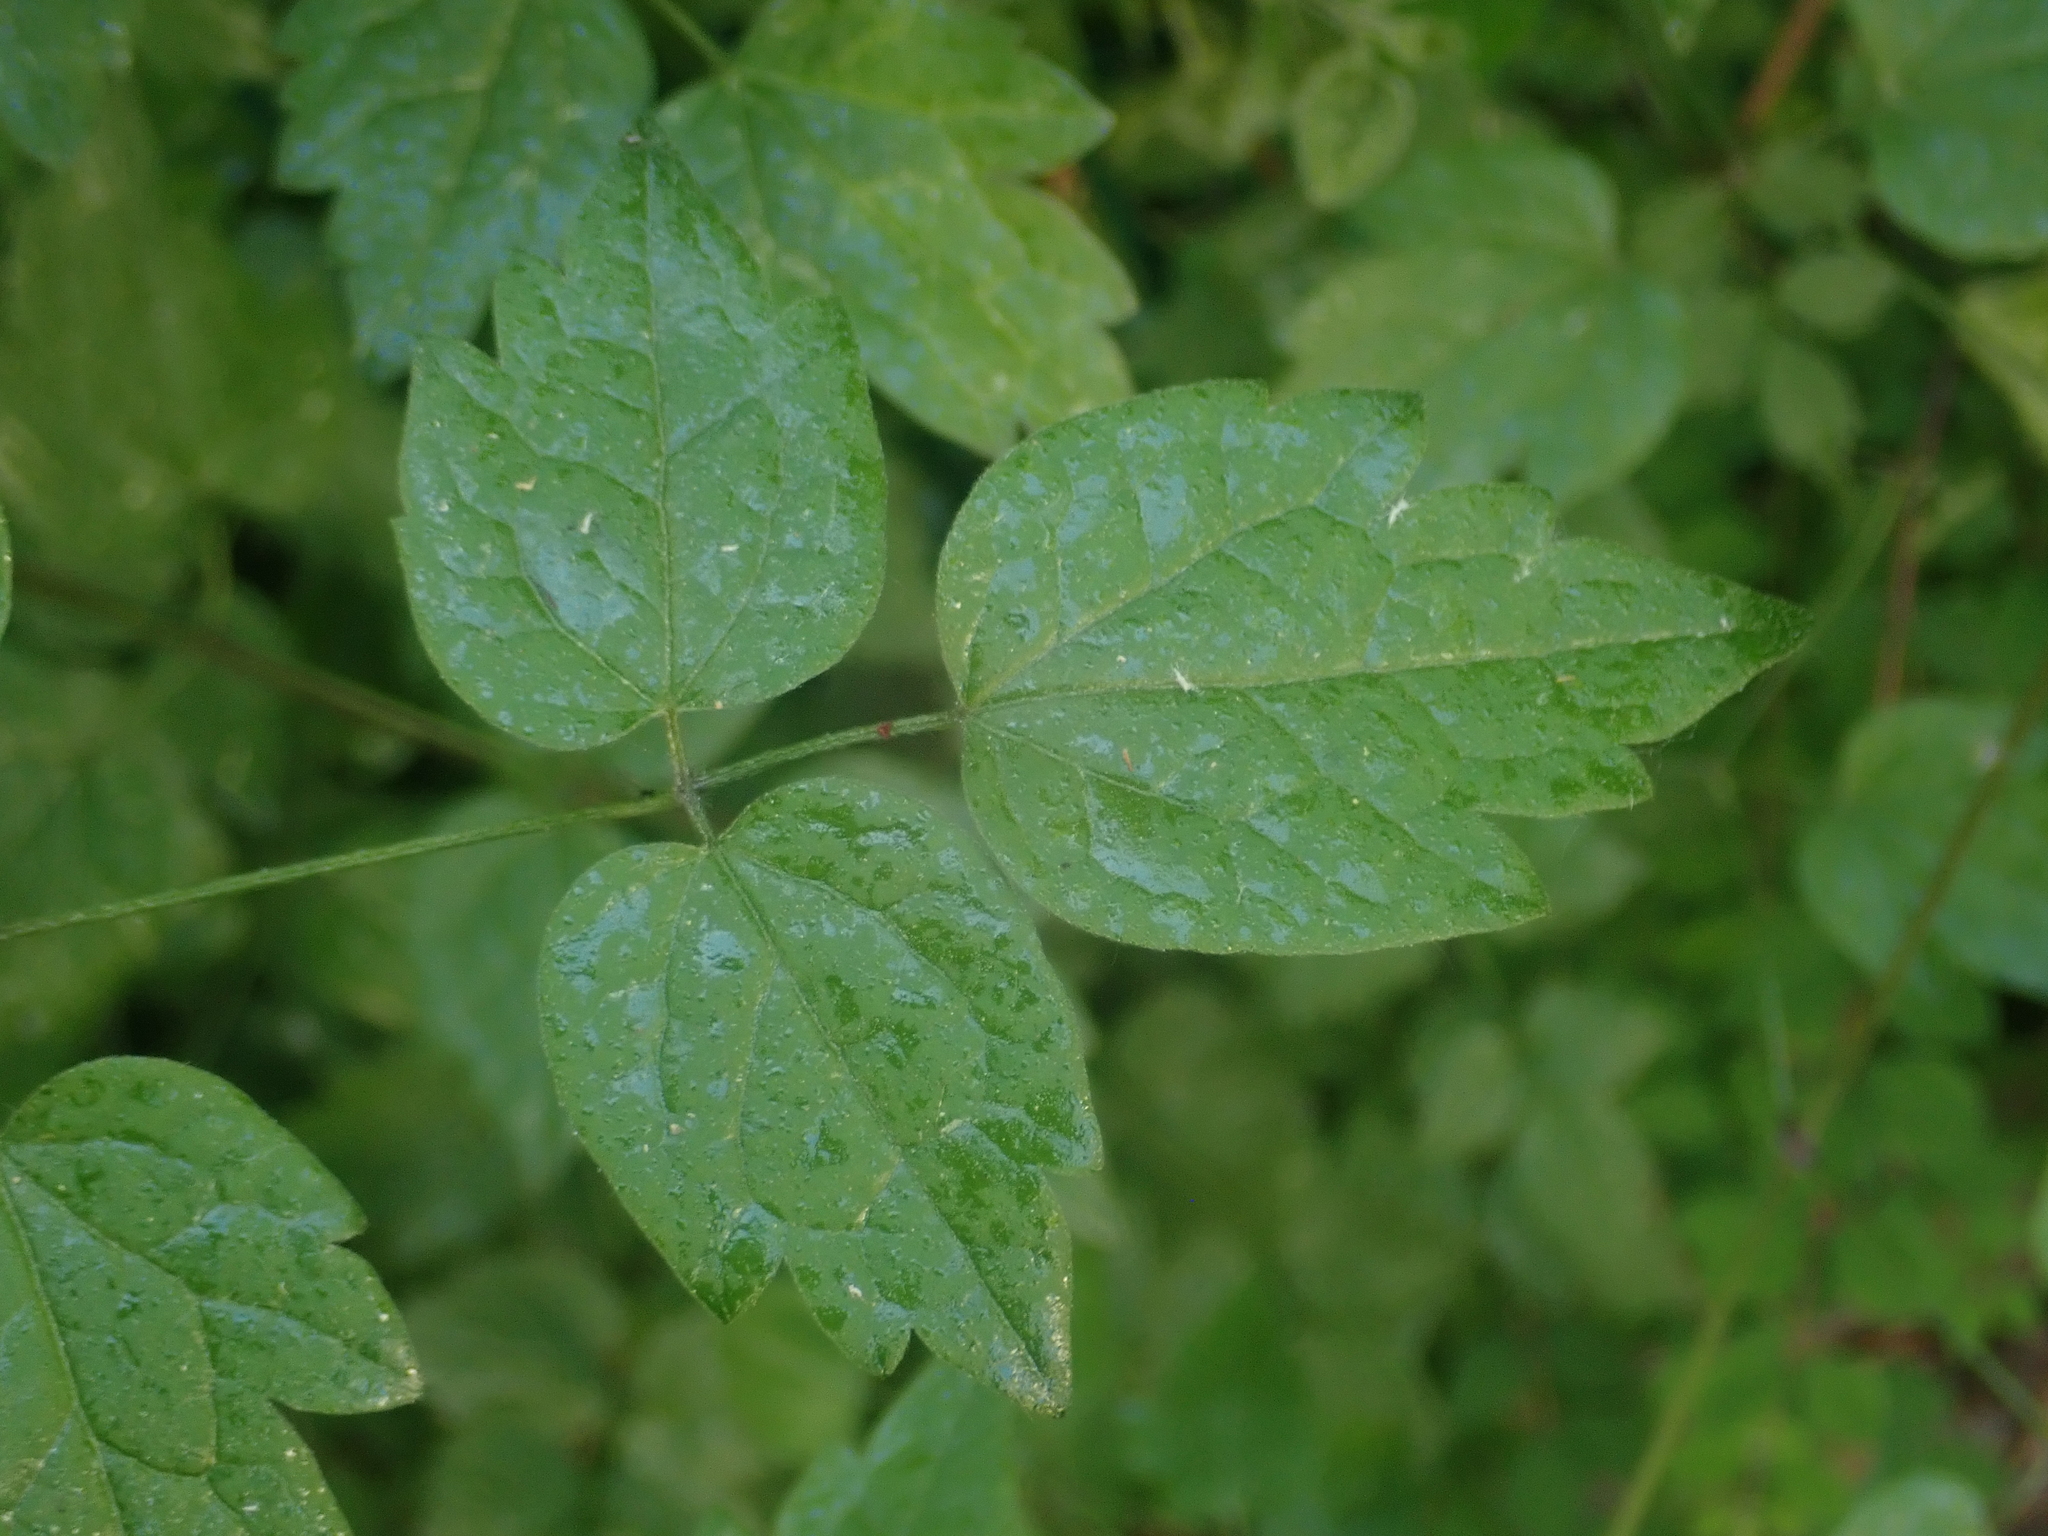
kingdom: Plantae
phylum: Tracheophyta
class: Magnoliopsida
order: Ranunculales
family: Ranunculaceae
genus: Clematis
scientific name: Clematis vitalba
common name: Evergreen clematis
